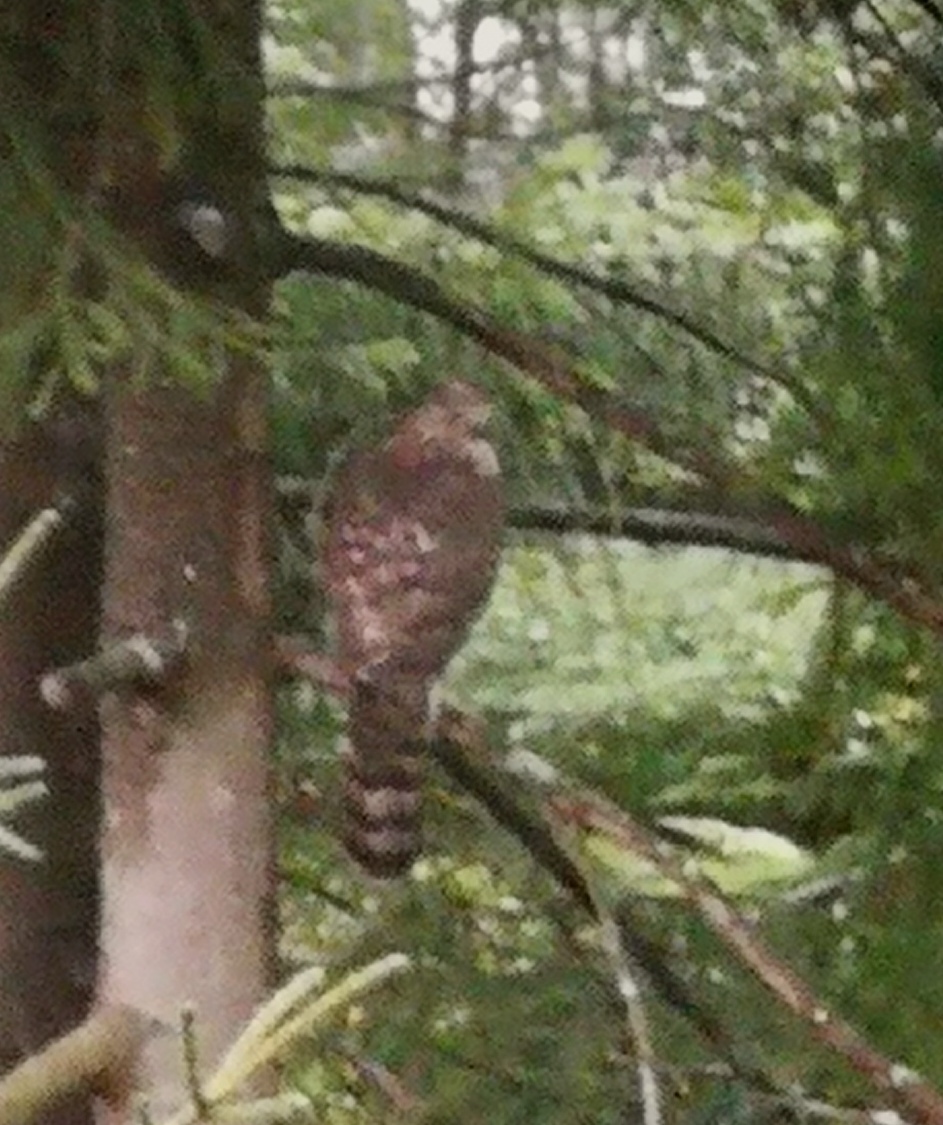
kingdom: Animalia
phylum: Chordata
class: Aves
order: Accipitriformes
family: Accipitridae
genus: Accipiter
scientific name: Accipiter gentilis
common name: Northern goshawk
